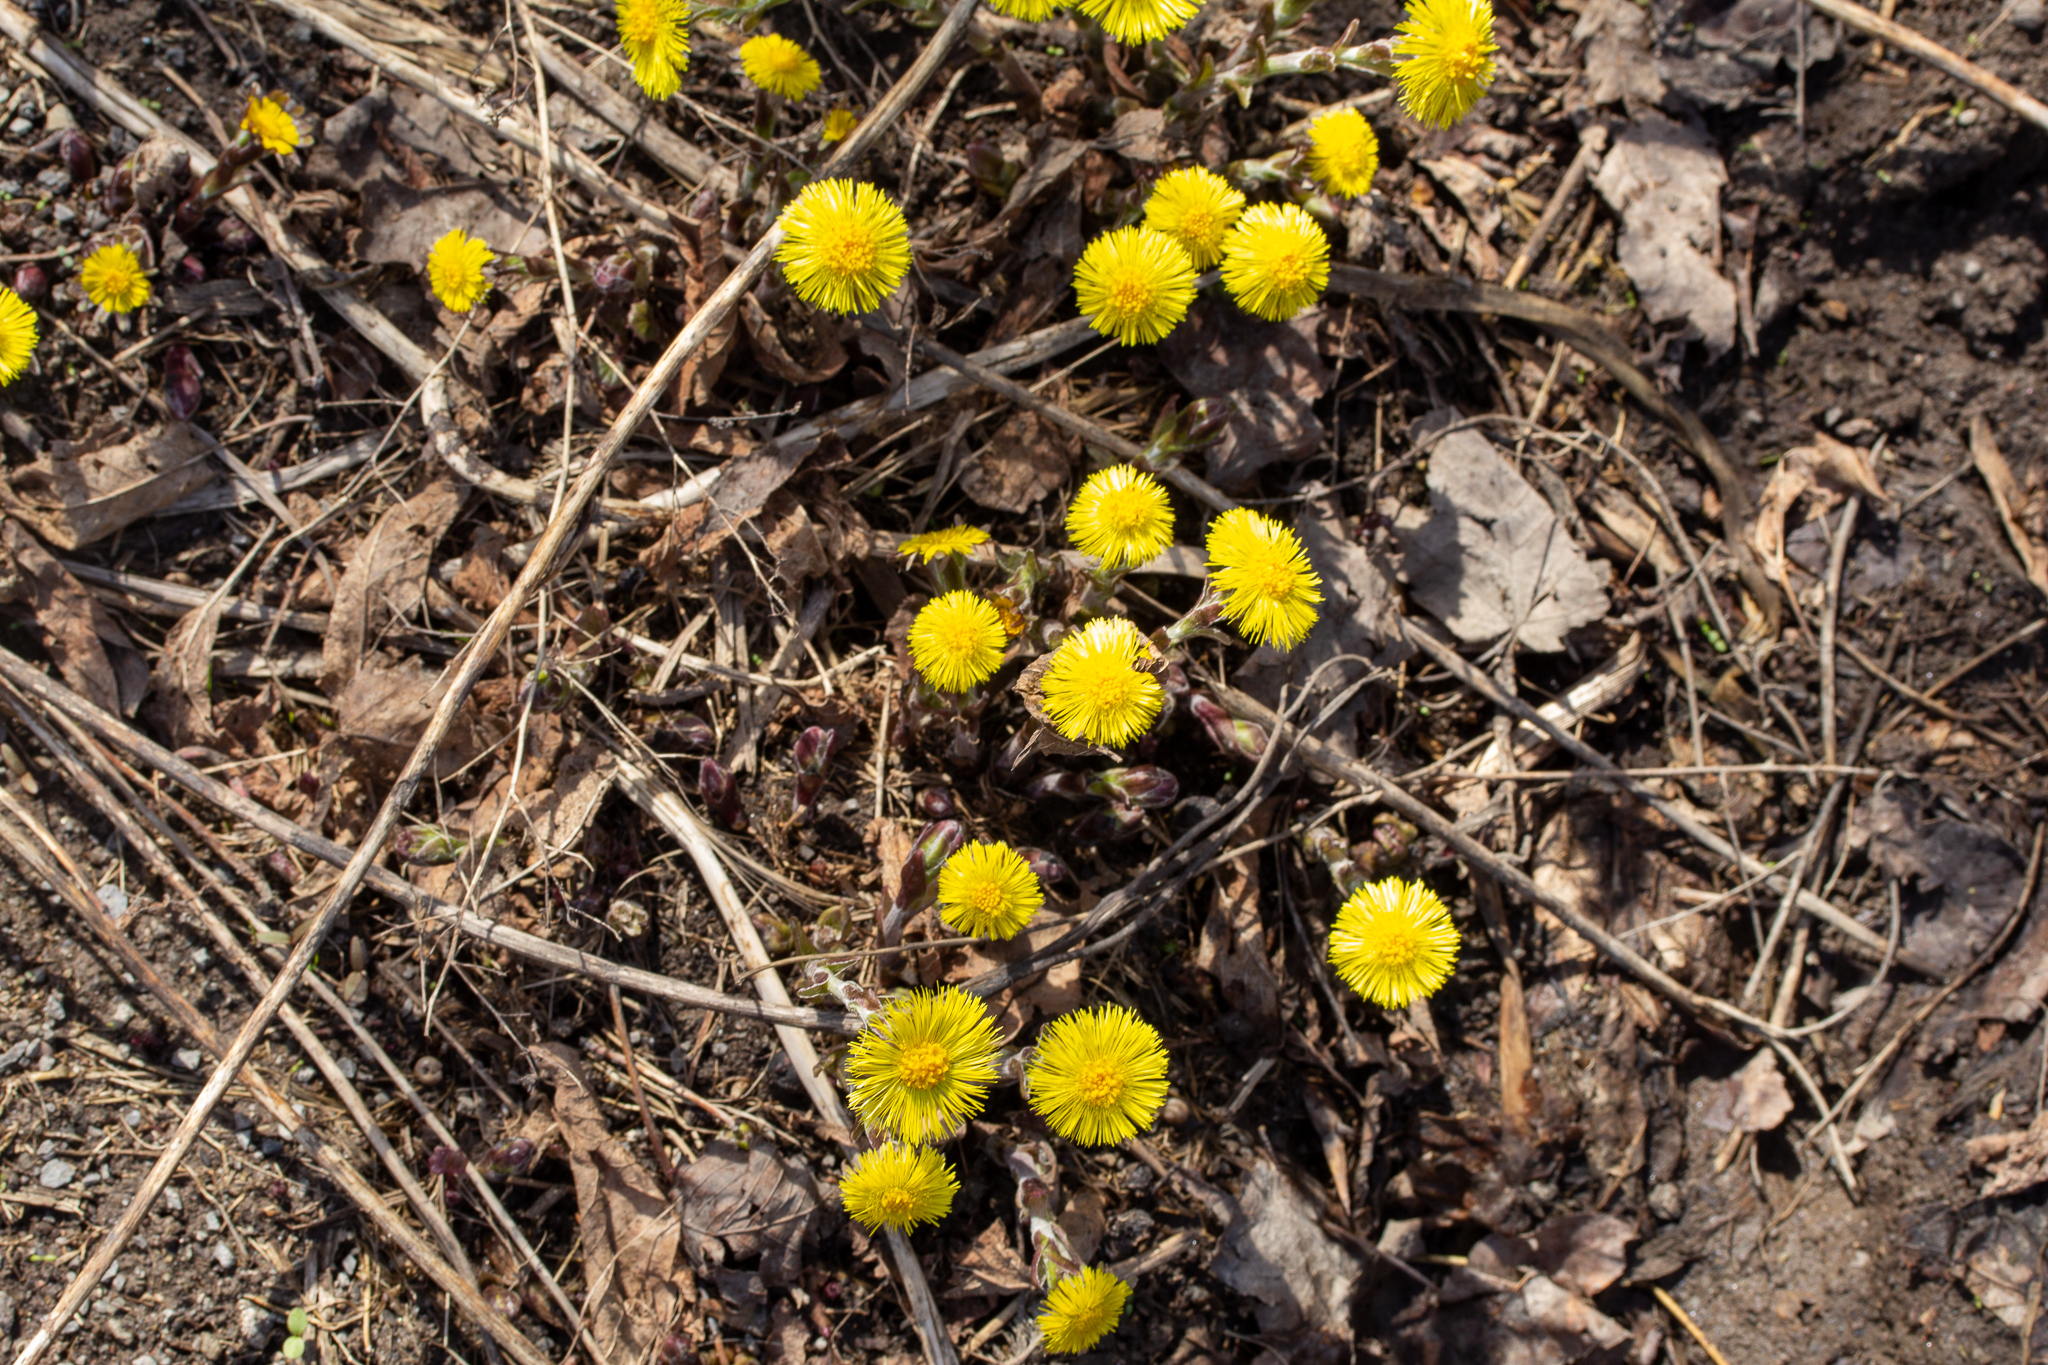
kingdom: Plantae
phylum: Tracheophyta
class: Magnoliopsida
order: Asterales
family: Asteraceae
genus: Tussilago
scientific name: Tussilago farfara
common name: Coltsfoot
